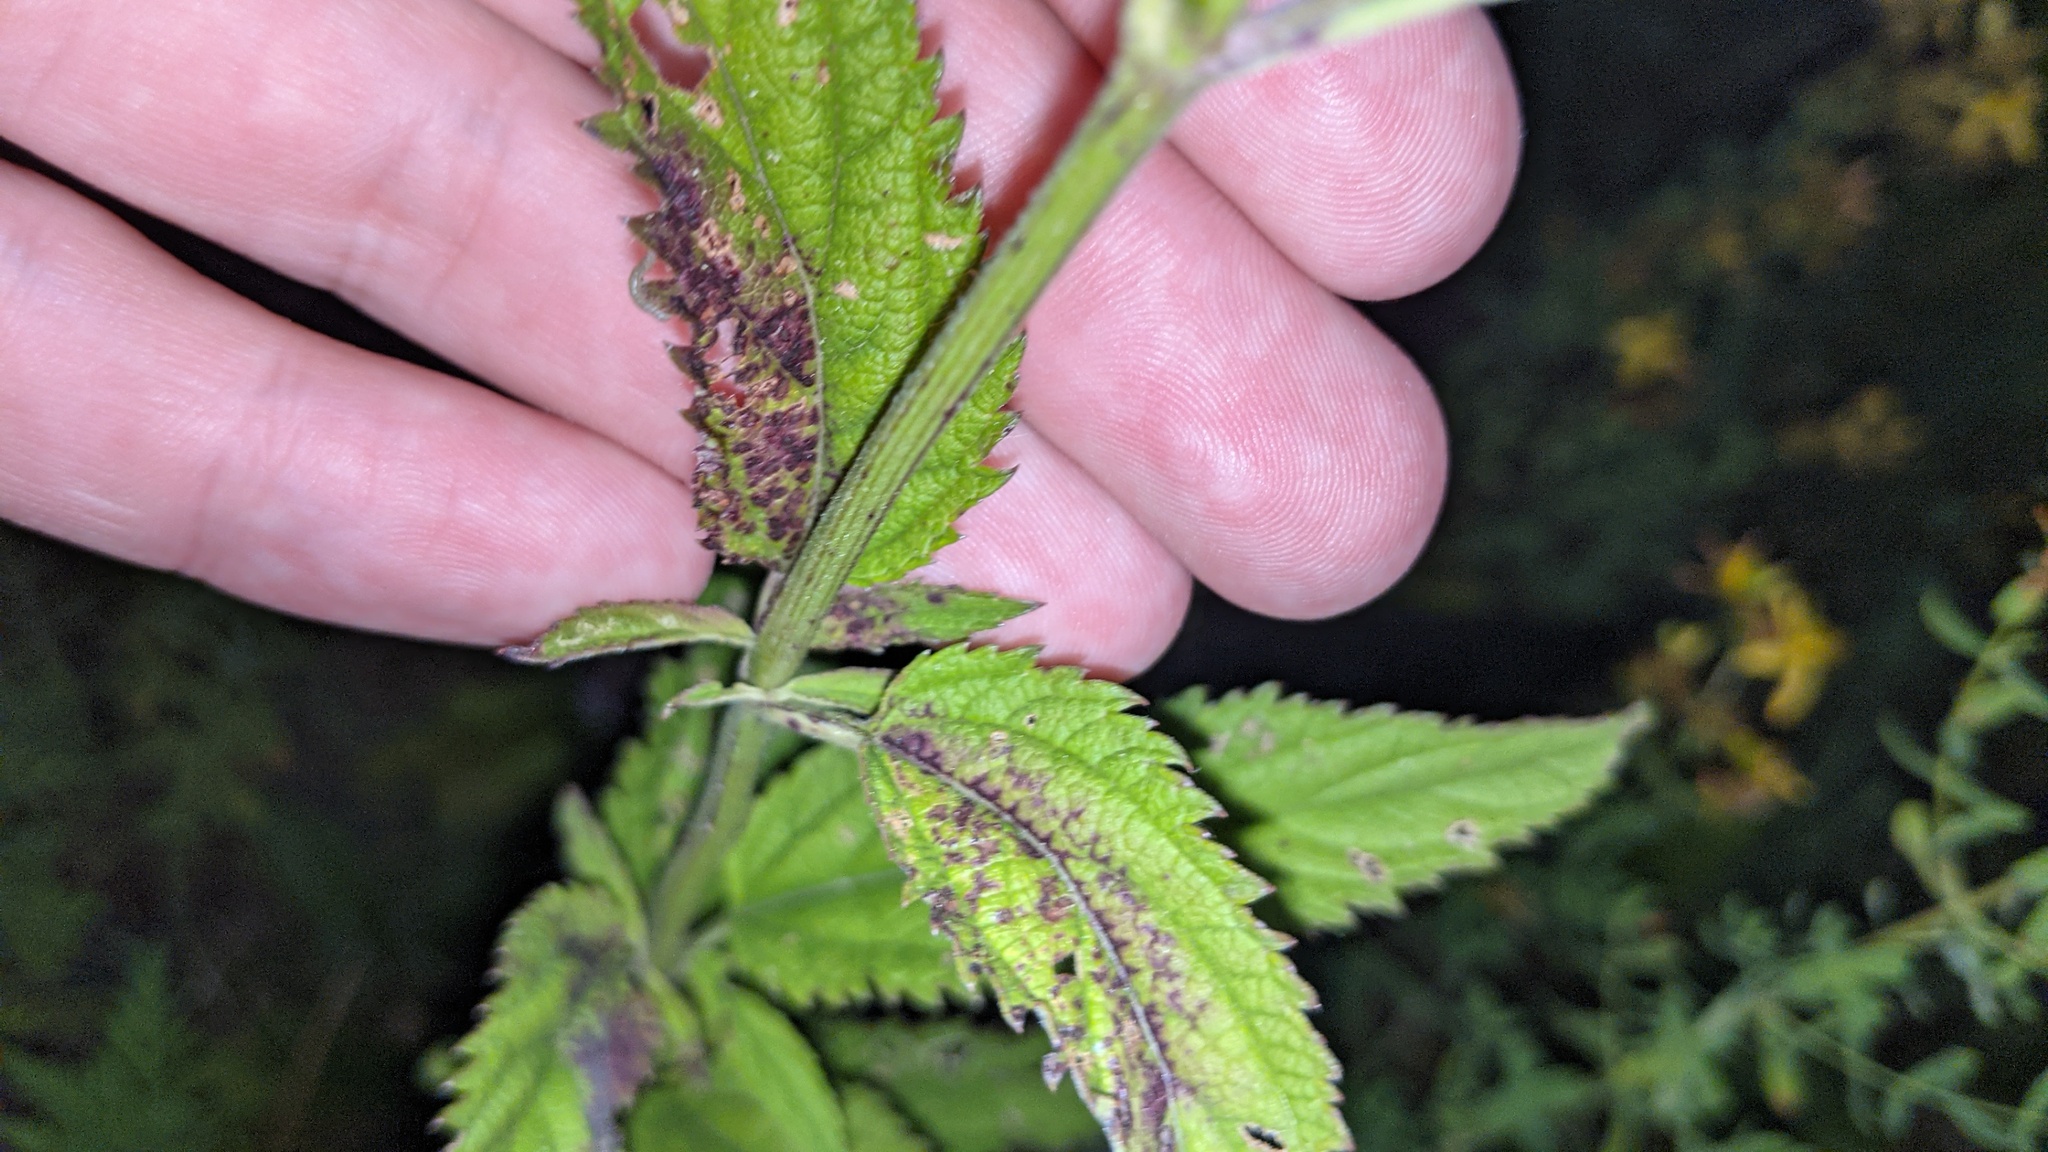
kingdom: Plantae
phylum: Tracheophyta
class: Magnoliopsida
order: Lamiales
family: Verbenaceae
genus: Verbena
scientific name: Verbena hastata
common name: American blue vervain
